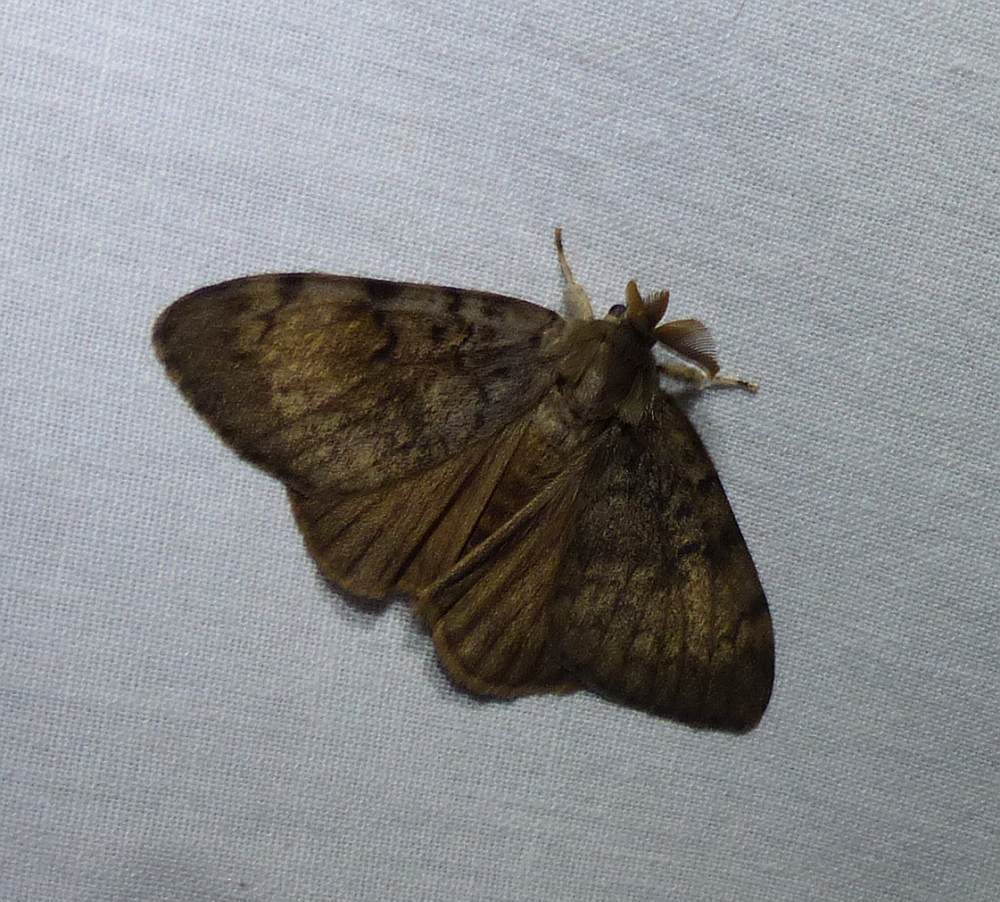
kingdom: Animalia
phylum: Arthropoda
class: Insecta
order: Lepidoptera
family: Erebidae
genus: Lymantria
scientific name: Lymantria dispar
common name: Gypsy moth
